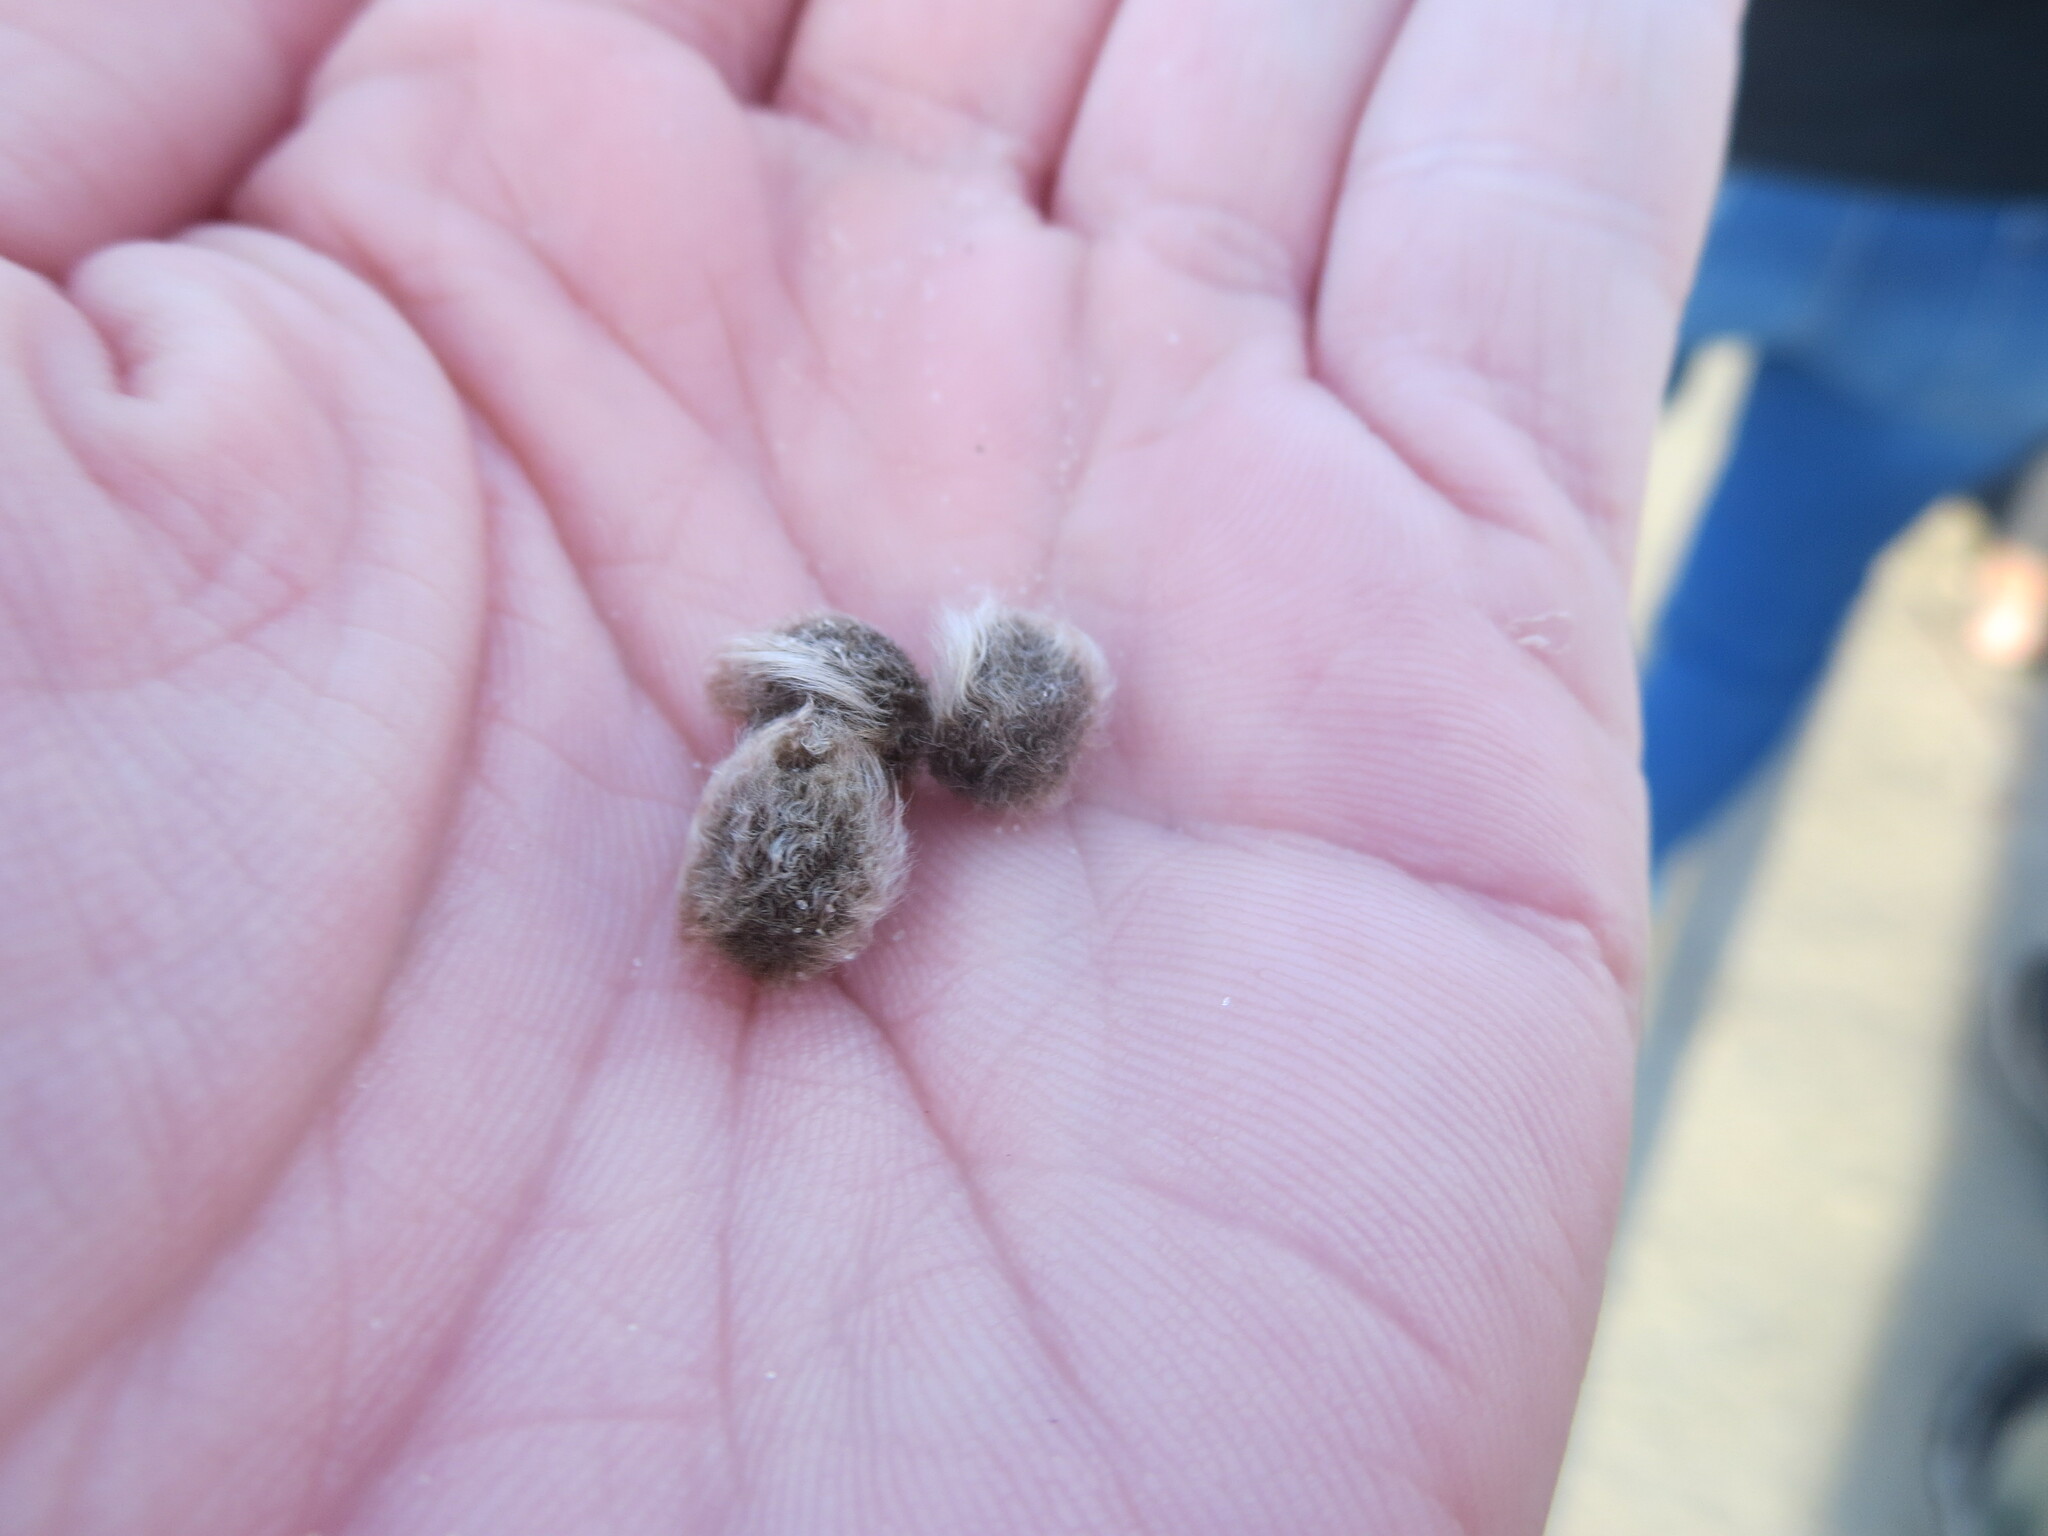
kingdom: Plantae
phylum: Tracheophyta
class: Magnoliopsida
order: Solanales
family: Convolvulaceae
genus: Ipomoea
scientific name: Ipomoea imperati
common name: Fiddle-leaf morning-glory
